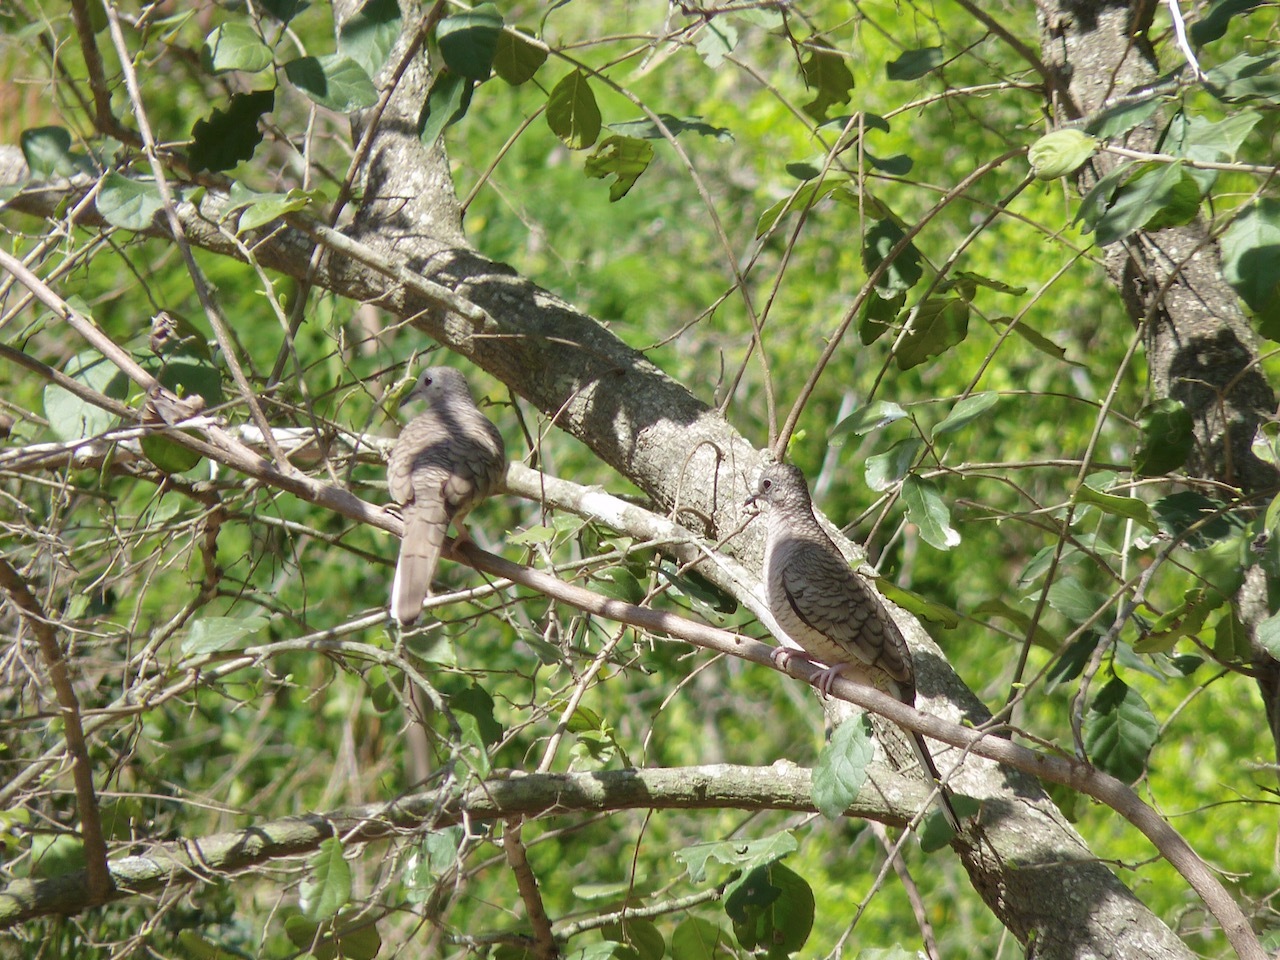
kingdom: Animalia
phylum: Chordata
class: Aves
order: Columbiformes
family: Columbidae
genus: Columbina
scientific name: Columbina inca
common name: Inca dove
